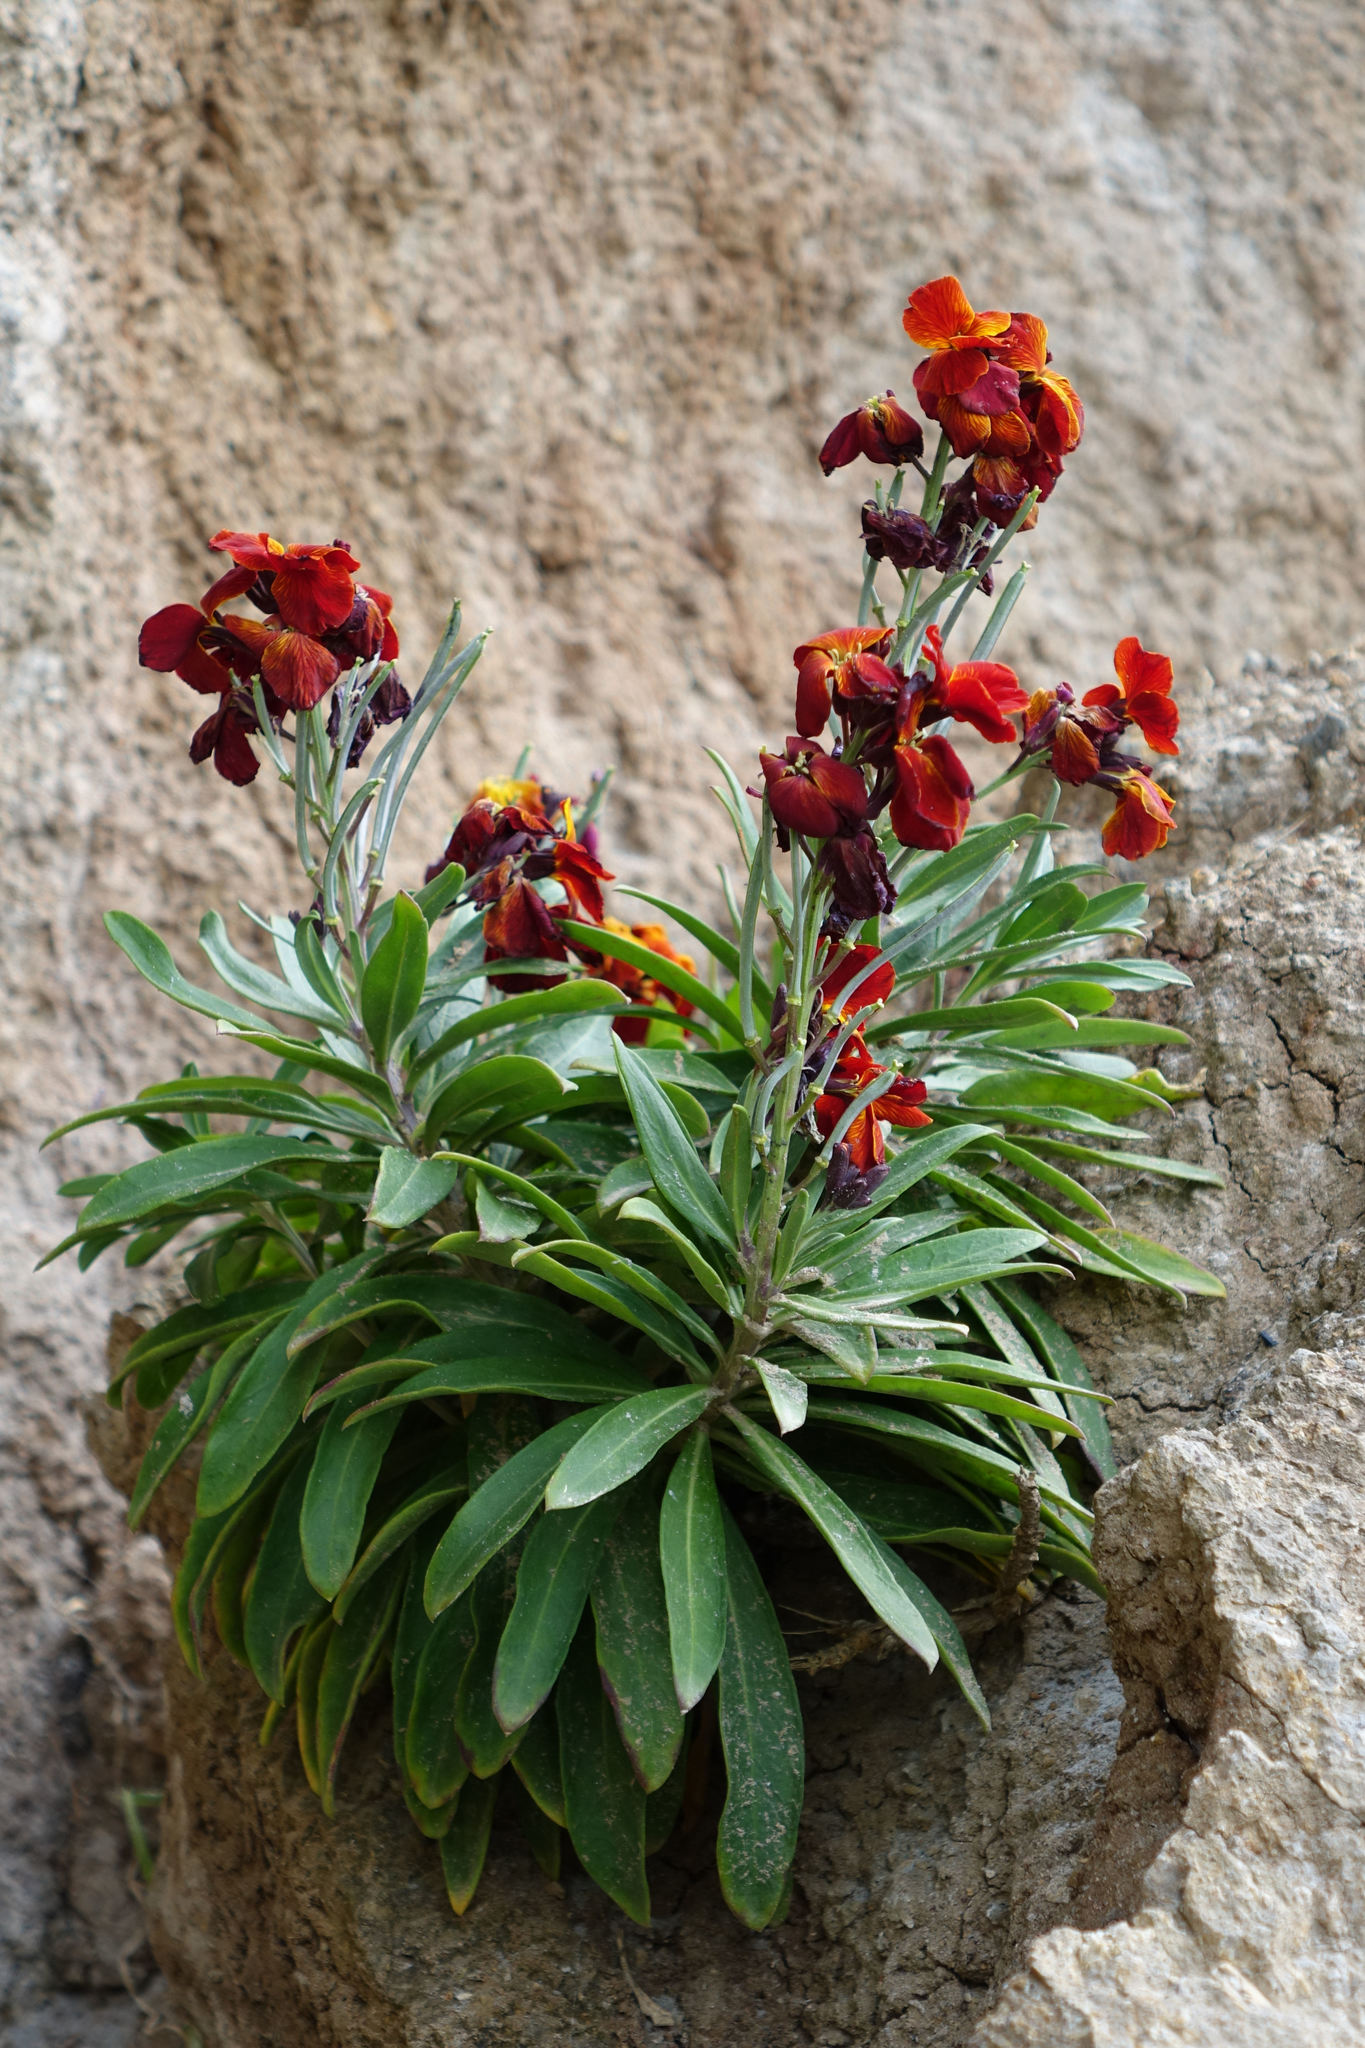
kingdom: Plantae
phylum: Tracheophyta
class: Magnoliopsida
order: Brassicales
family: Brassicaceae
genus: Erysimum
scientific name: Erysimum cheiri
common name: Wallflower
